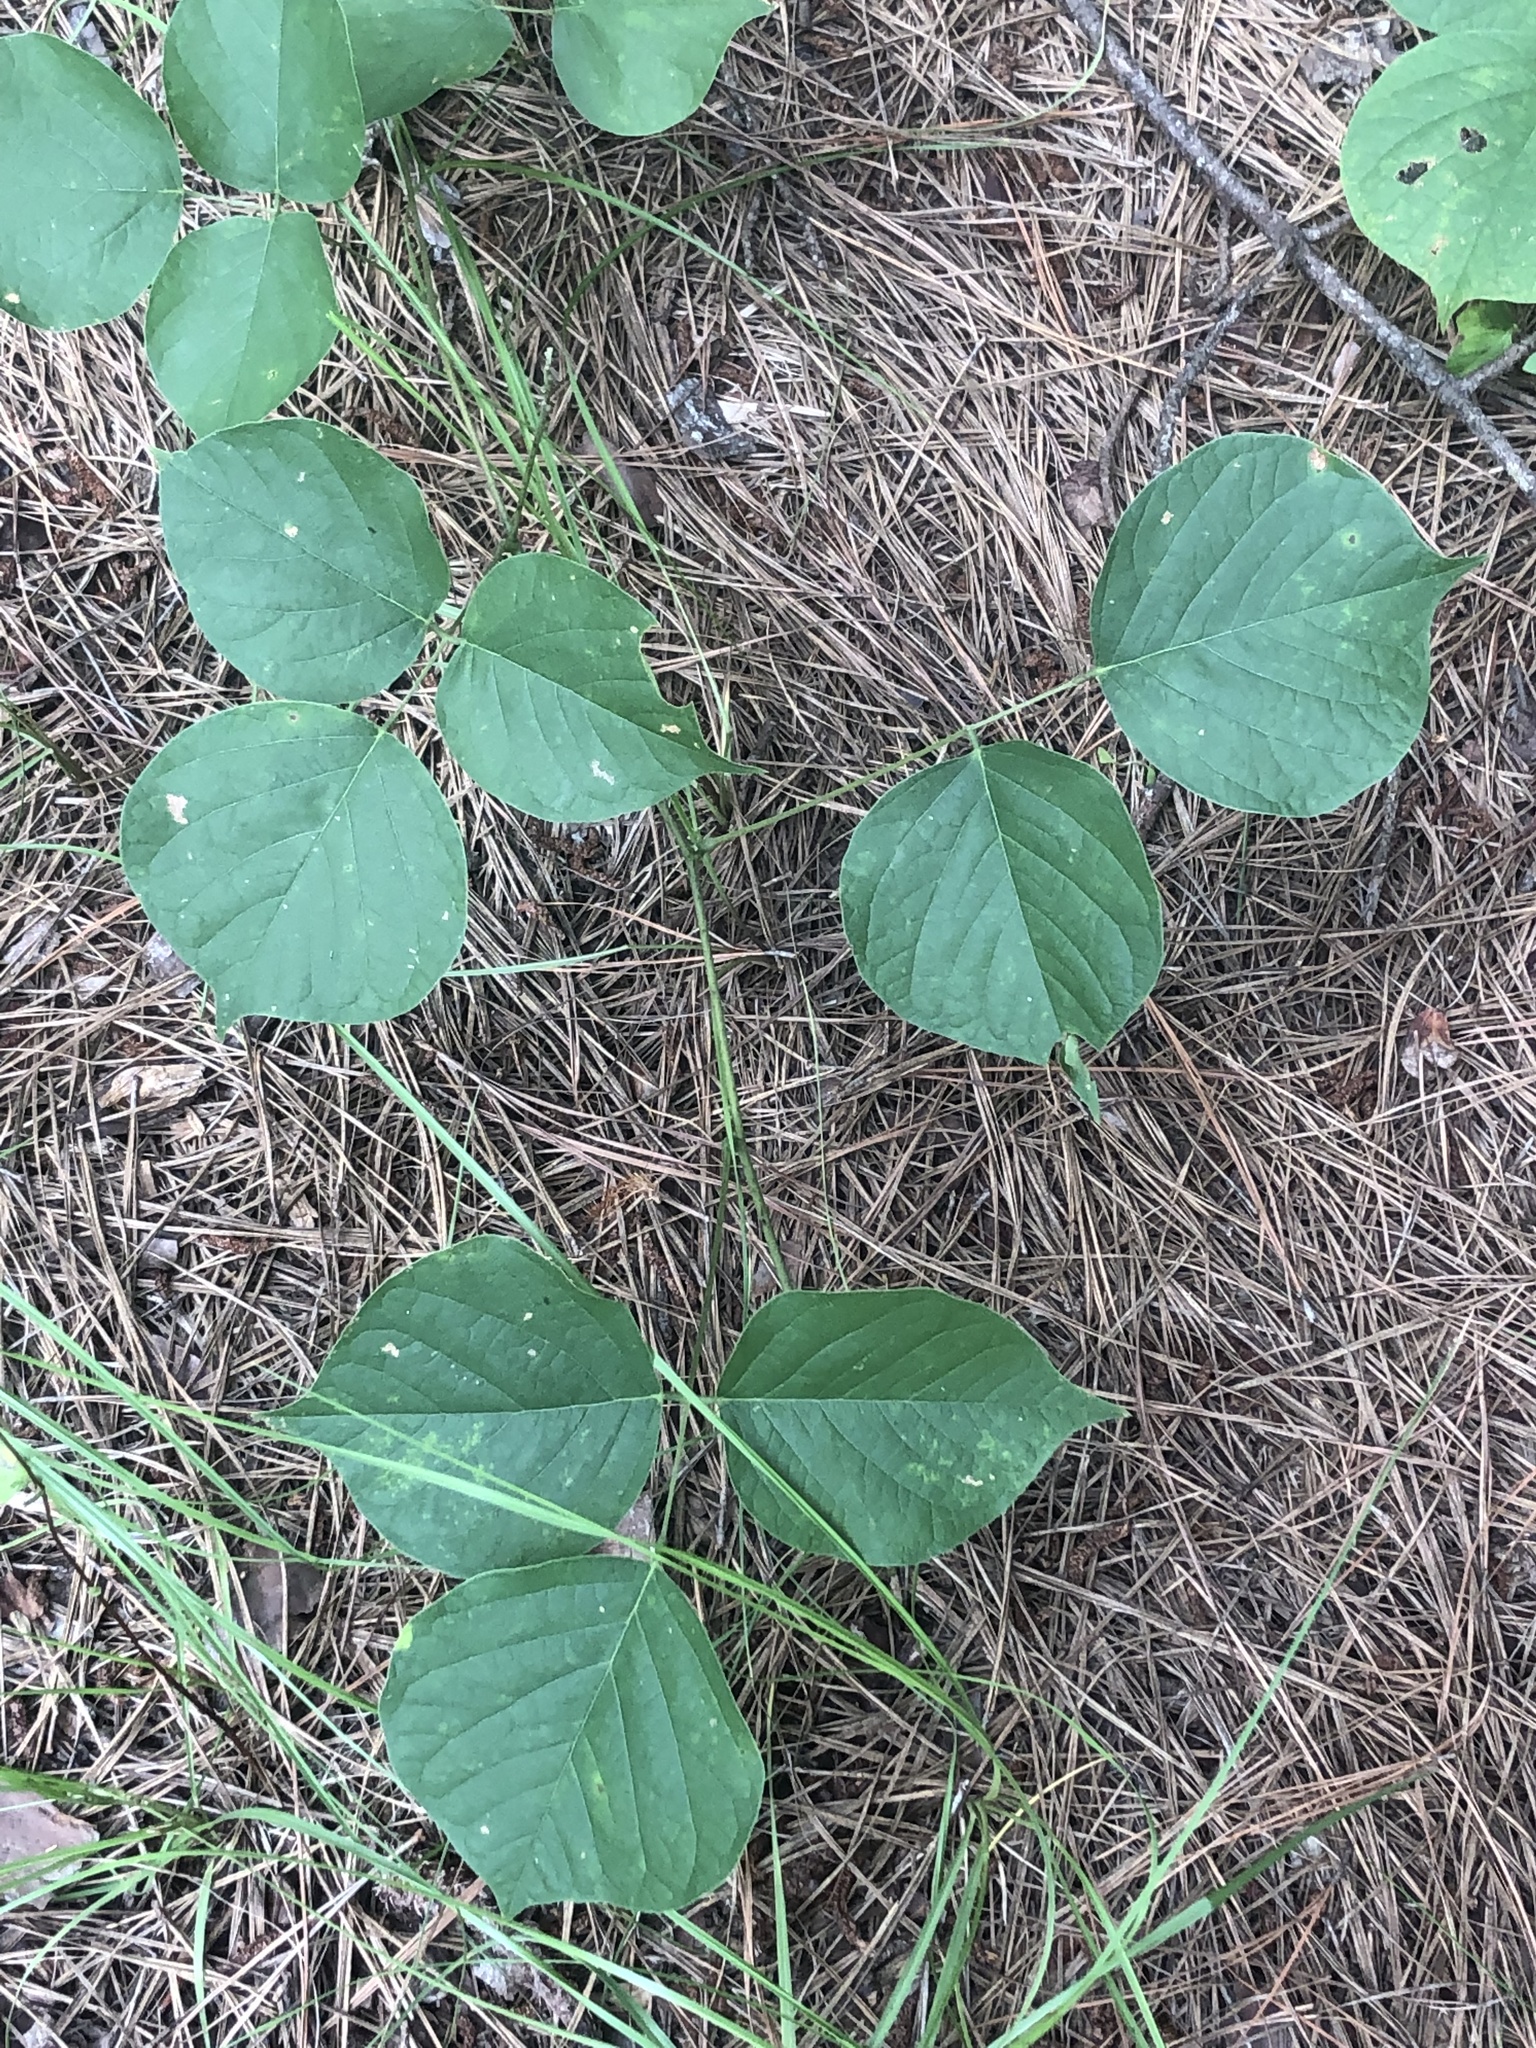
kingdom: Plantae
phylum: Tracheophyta
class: Magnoliopsida
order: Fabales
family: Fabaceae
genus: Lackeya
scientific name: Lackeya multiflora
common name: Boykin's clusterpea
